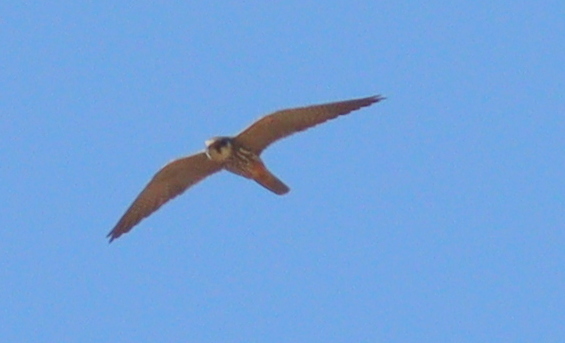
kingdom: Animalia
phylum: Chordata
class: Aves
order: Falconiformes
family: Falconidae
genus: Falco
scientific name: Falco subbuteo
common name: Eurasian hobby
